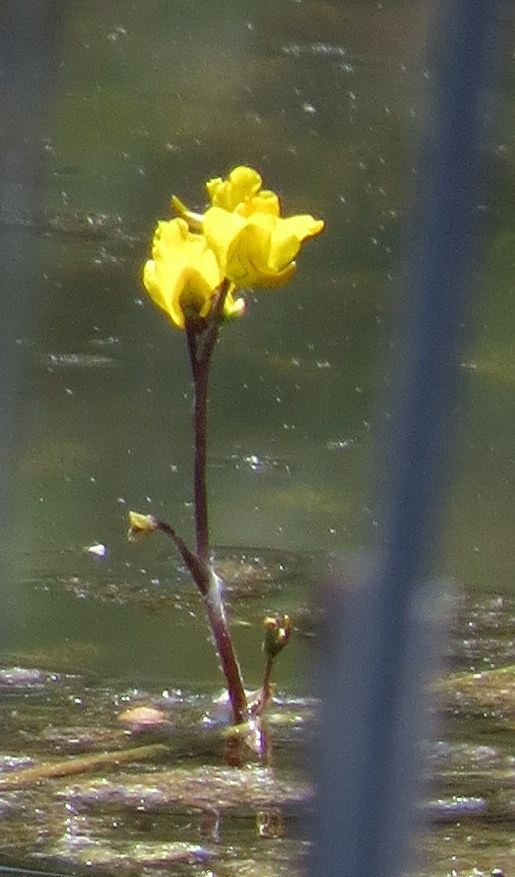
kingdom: Plantae
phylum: Tracheophyta
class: Magnoliopsida
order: Lamiales
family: Lentibulariaceae
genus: Utricularia
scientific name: Utricularia macrorhiza
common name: Common bladderwort
